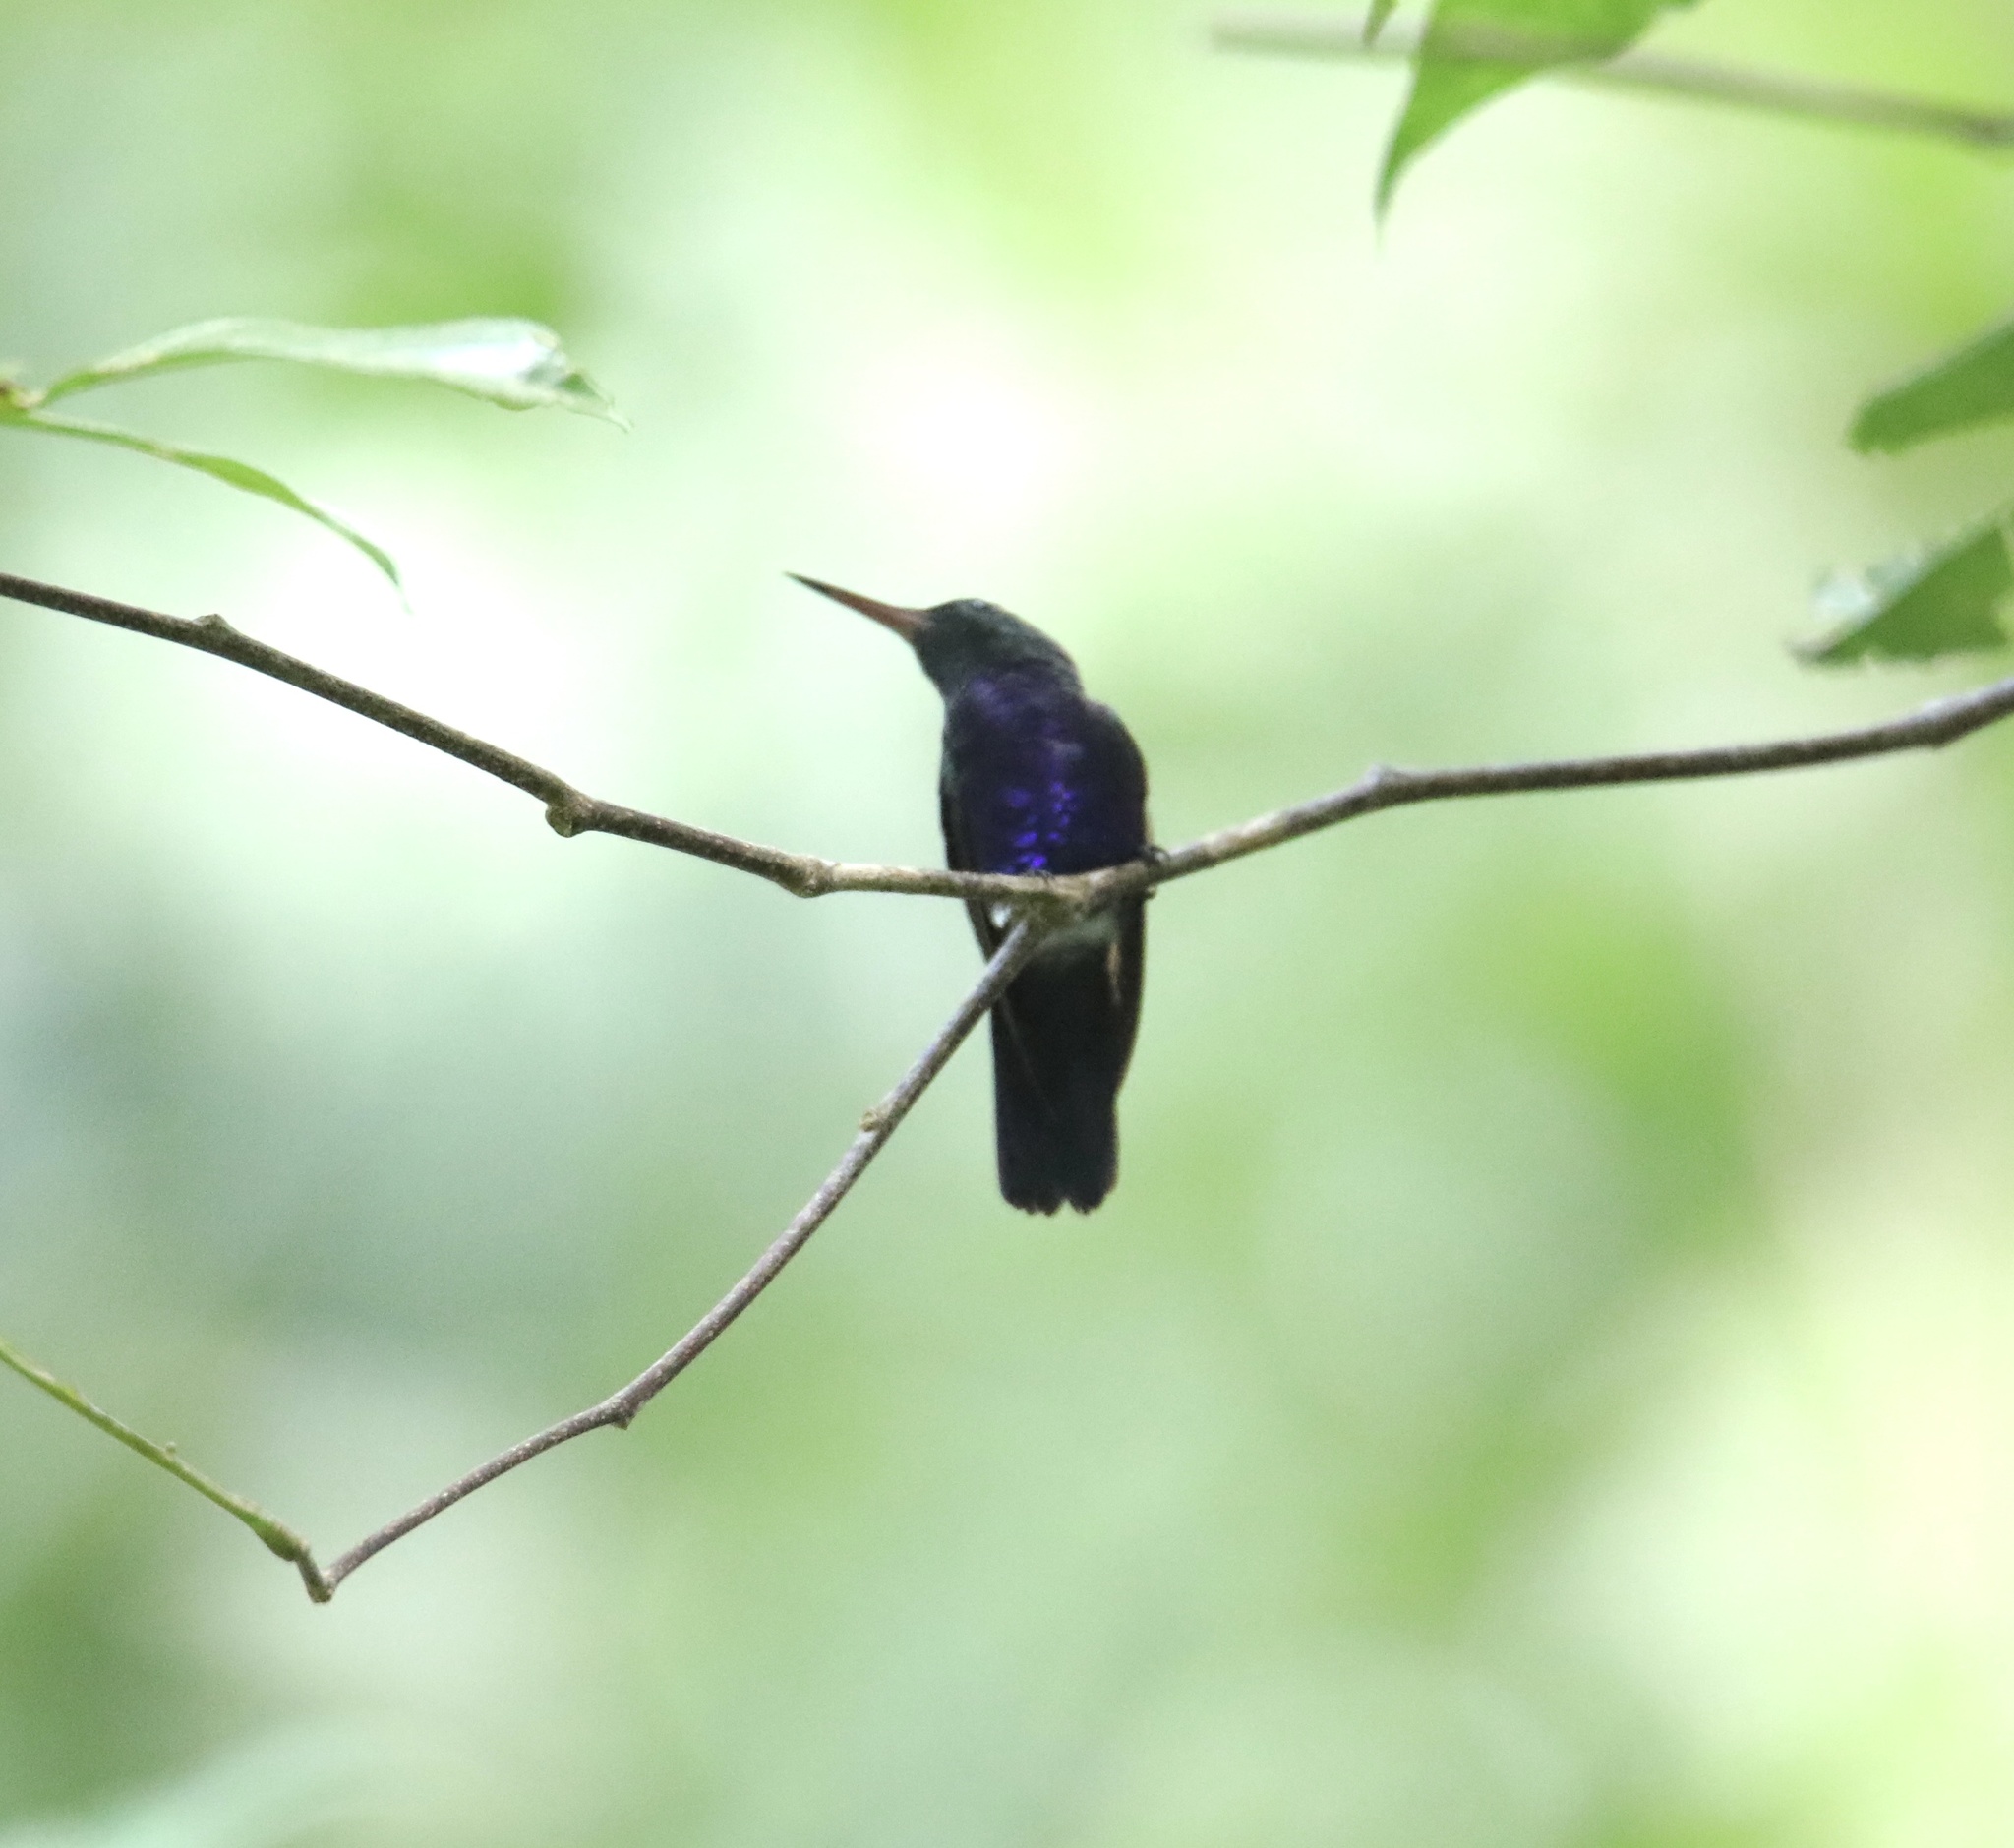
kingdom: Animalia
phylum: Chordata
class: Aves
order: Apodiformes
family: Trochilidae
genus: Chlorestes
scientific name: Chlorestes julie
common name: Violet-bellied hummingbird
